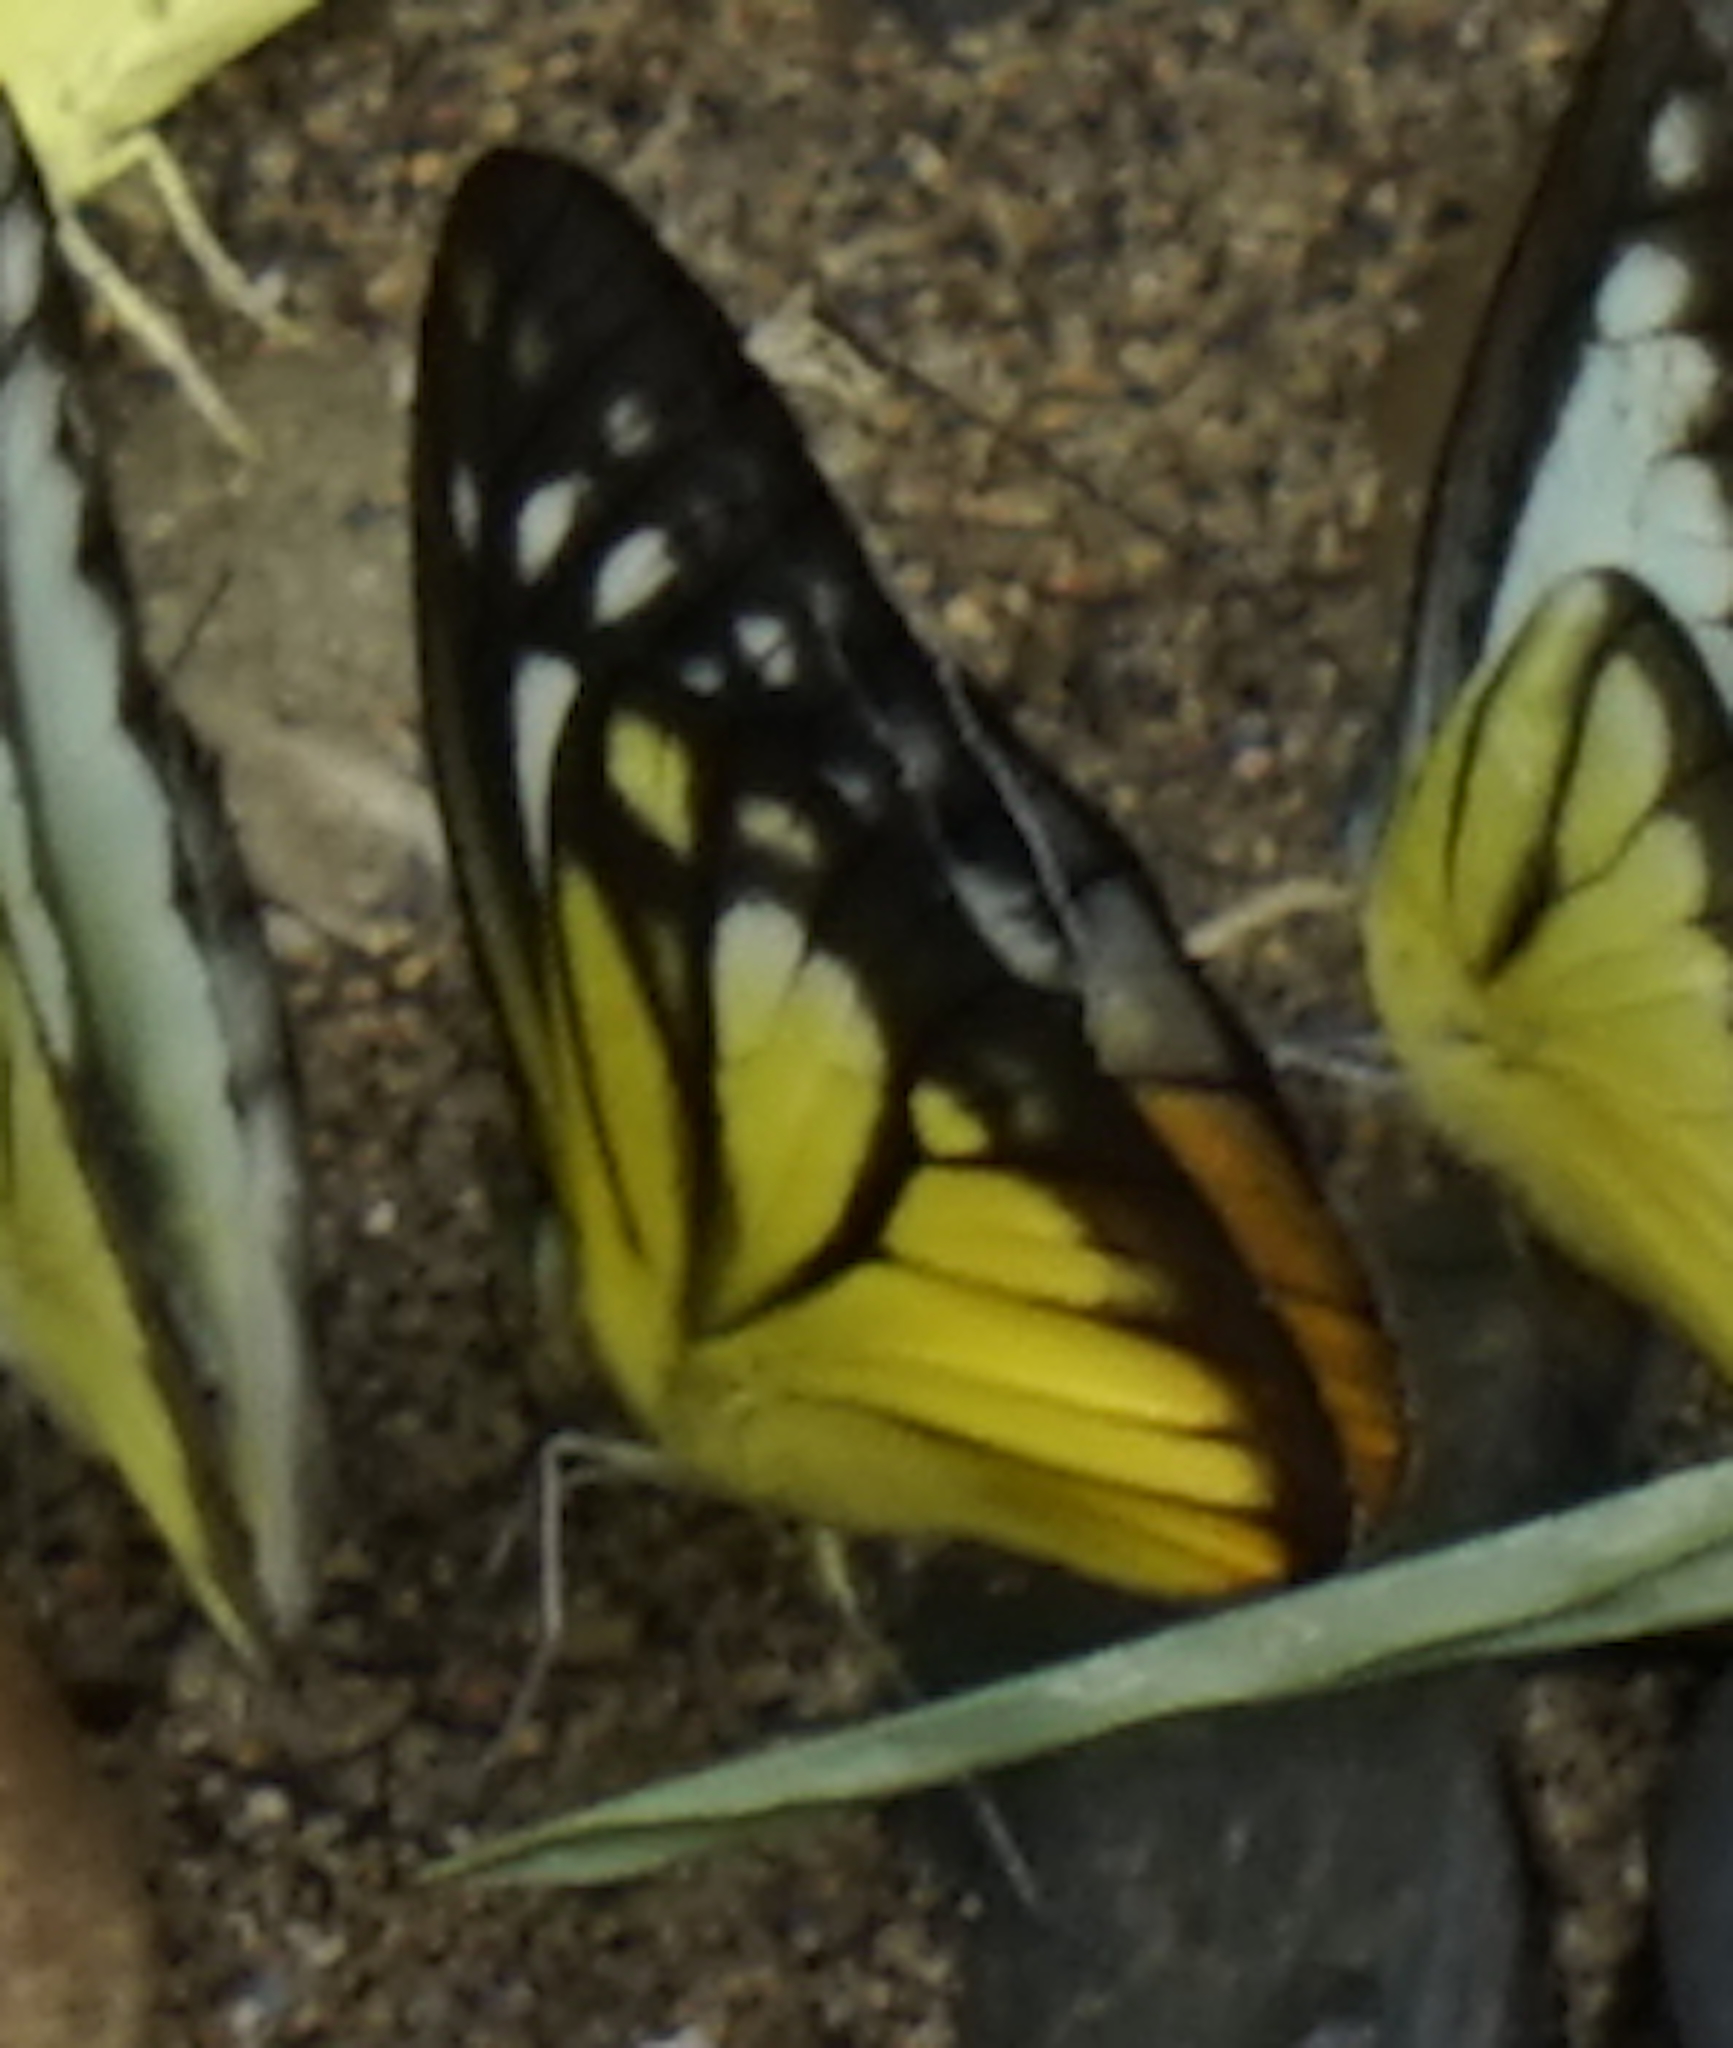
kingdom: Animalia
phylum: Arthropoda
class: Insecta
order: Lepidoptera
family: Pieridae
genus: Cepora
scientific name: Cepora iudith
